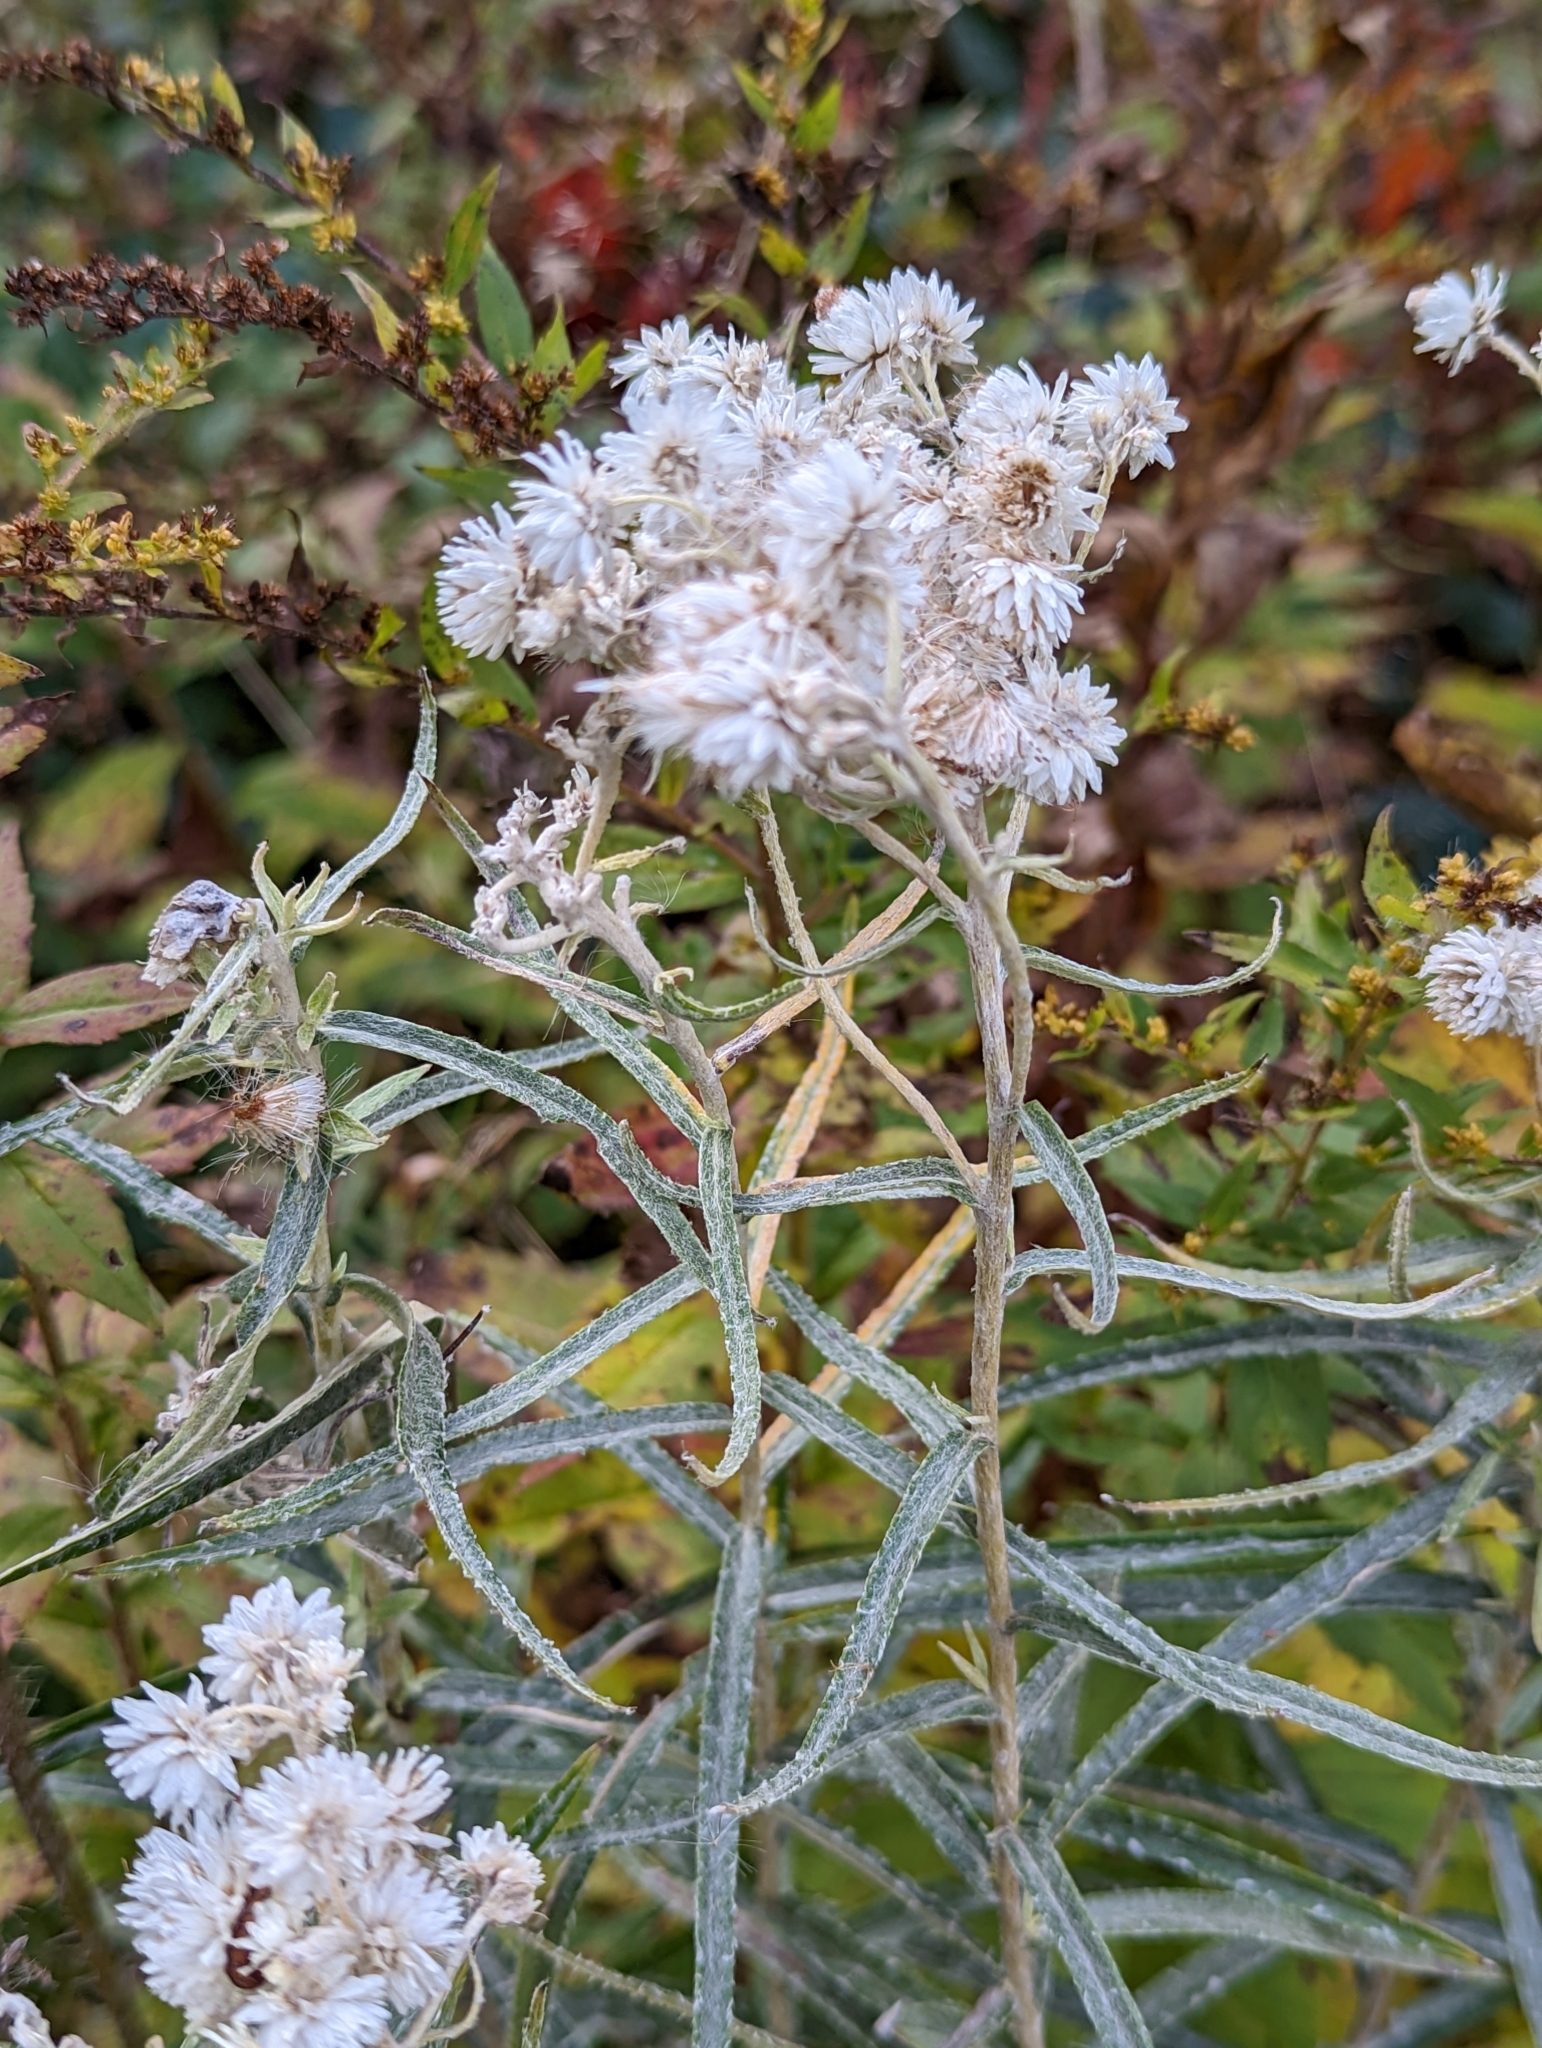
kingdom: Plantae
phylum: Tracheophyta
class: Magnoliopsida
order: Asterales
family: Asteraceae
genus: Anaphalis
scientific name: Anaphalis margaritacea
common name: Pearly everlasting
